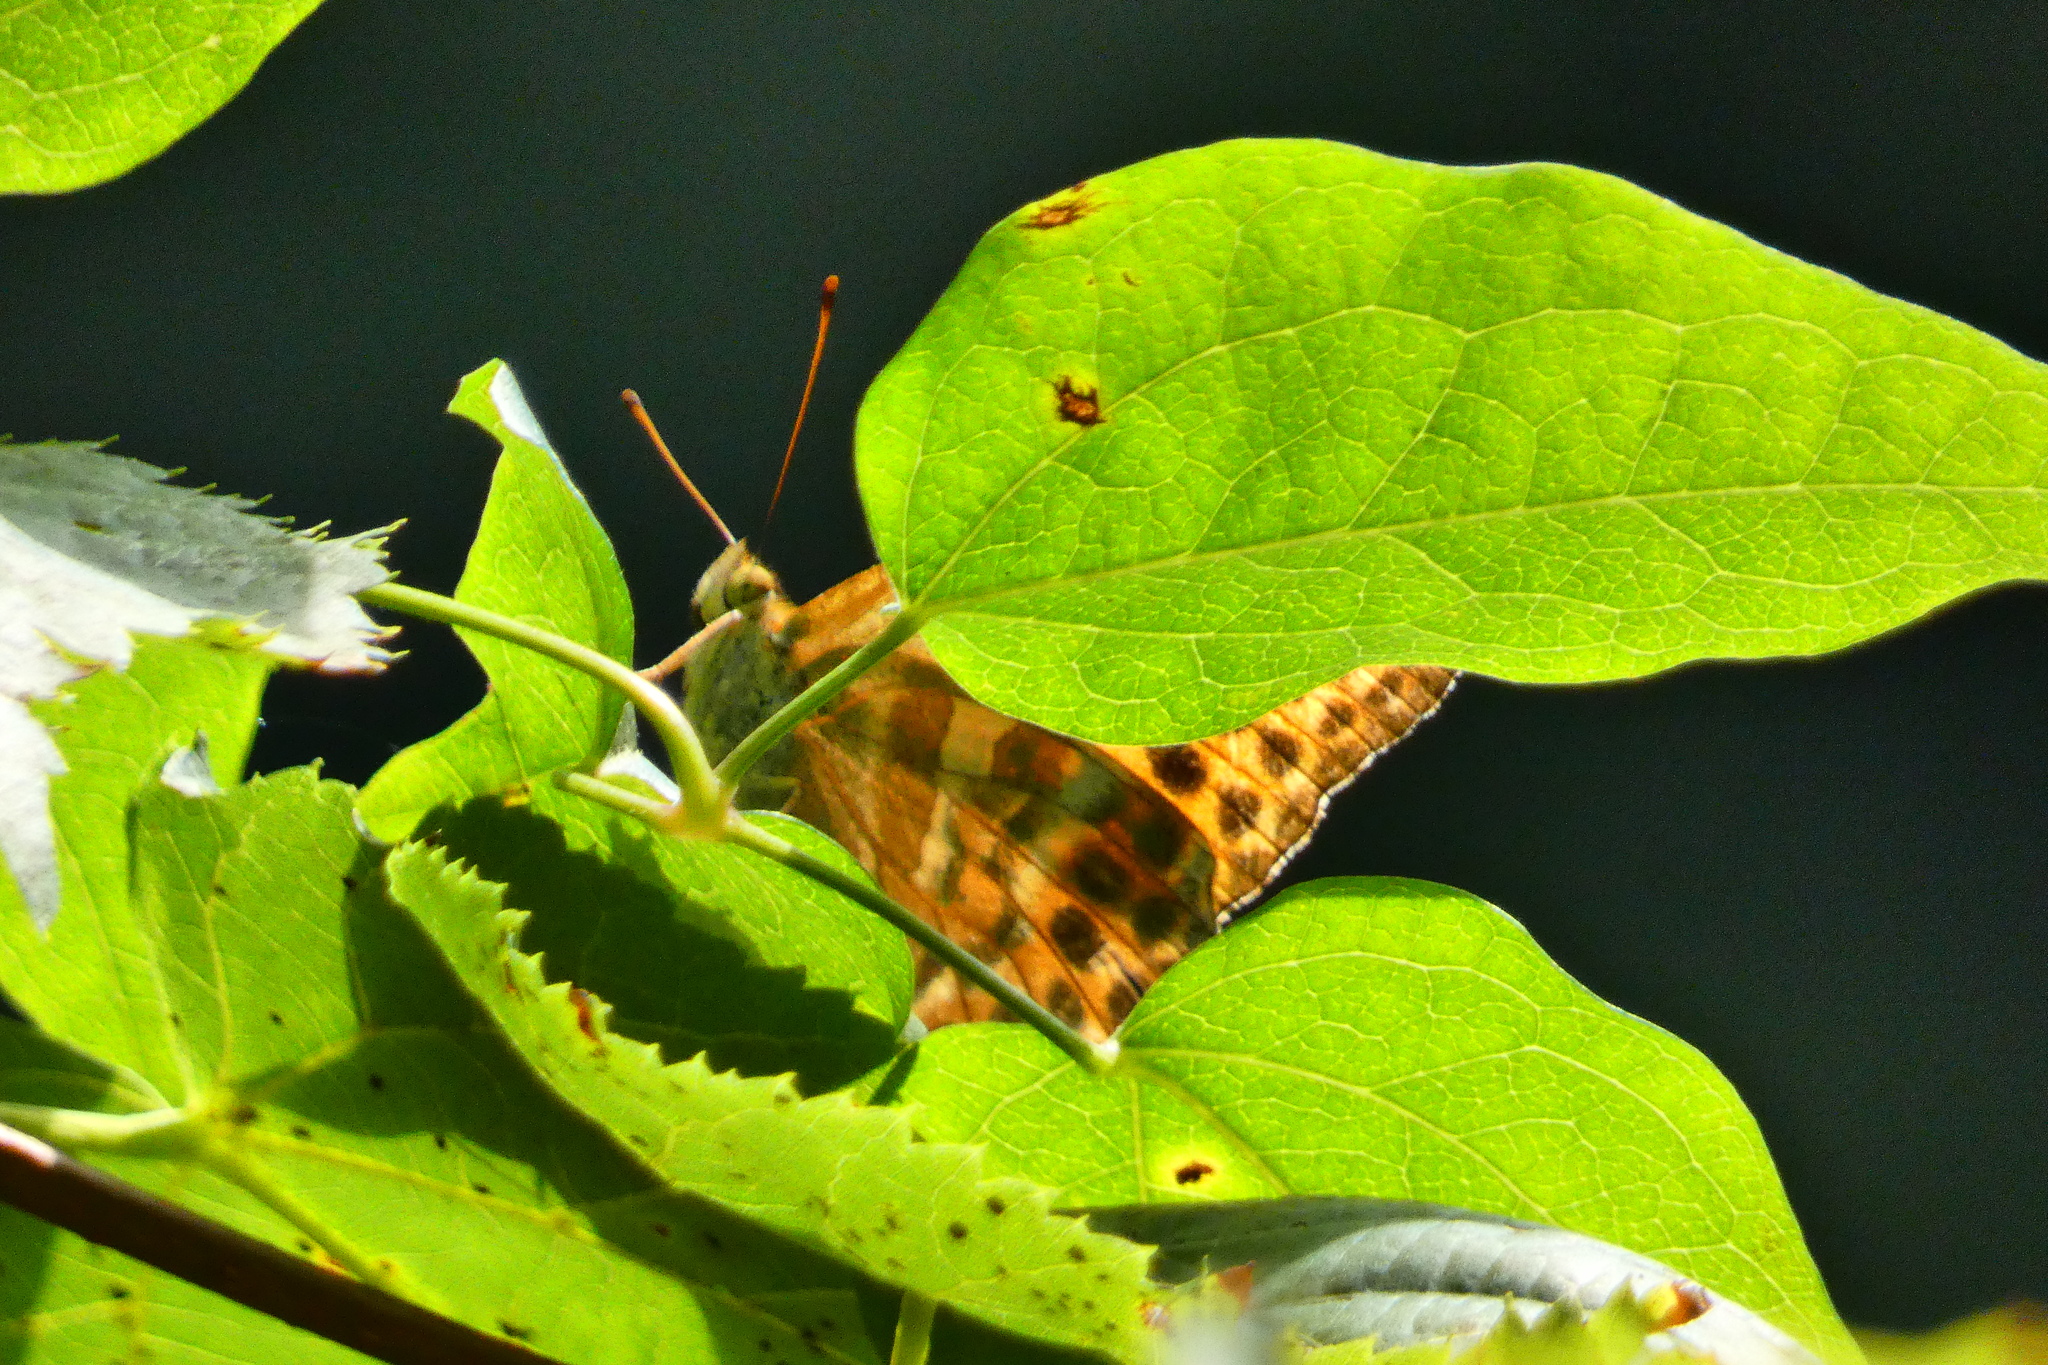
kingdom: Animalia
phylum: Arthropoda
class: Insecta
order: Lepidoptera
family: Nymphalidae
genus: Argynnis
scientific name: Argynnis paphia
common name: Silver-washed fritillary
